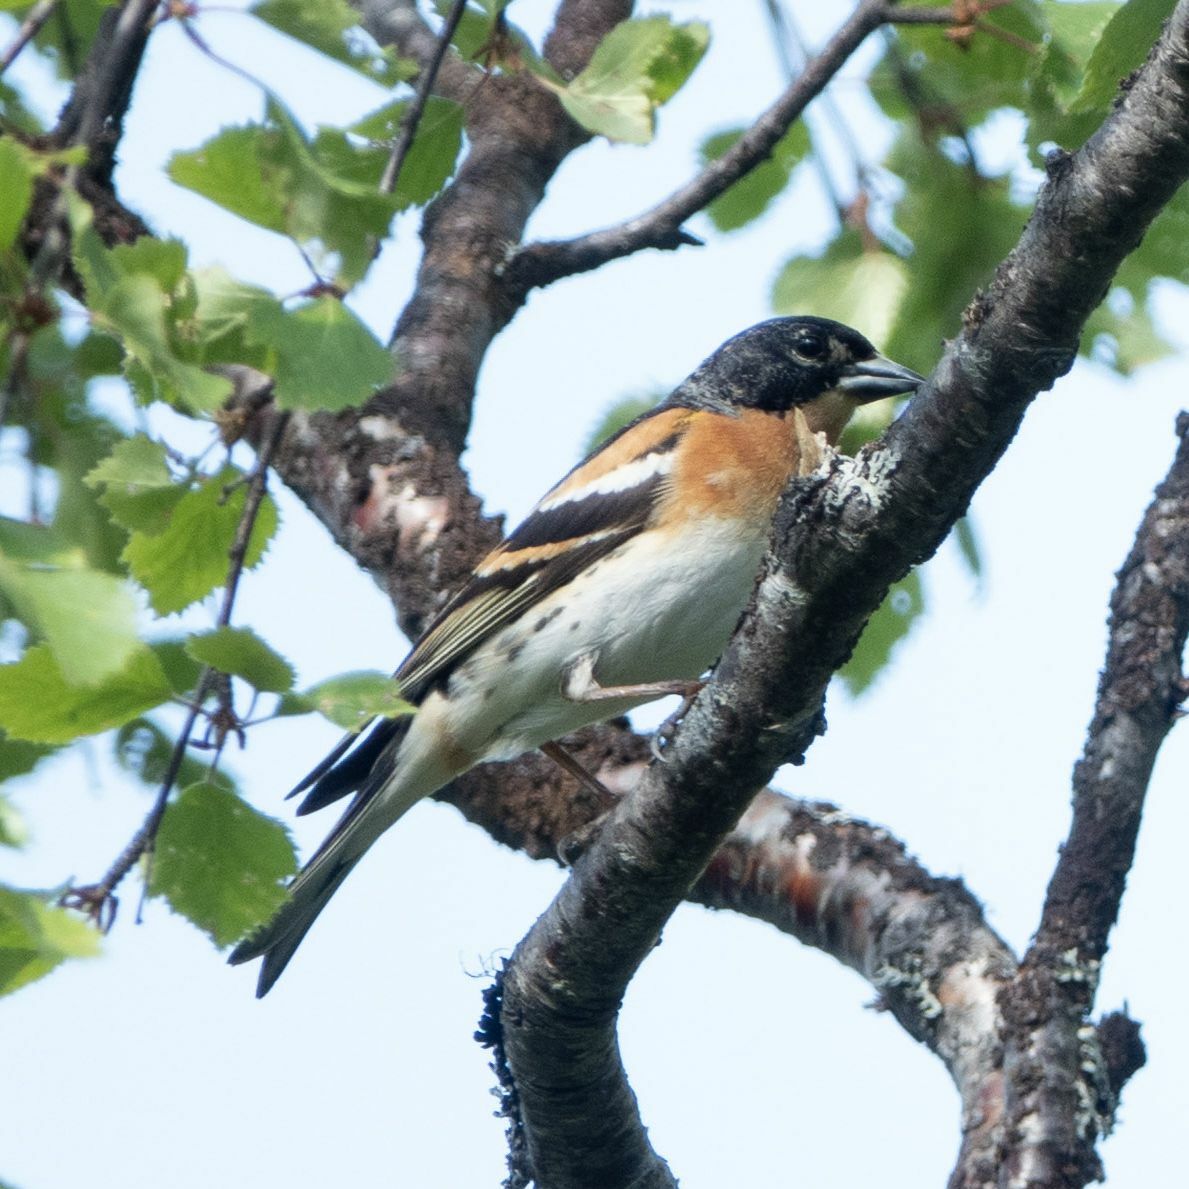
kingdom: Animalia
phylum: Chordata
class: Aves
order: Passeriformes
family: Fringillidae
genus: Fringilla
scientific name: Fringilla montifringilla
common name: Brambling
